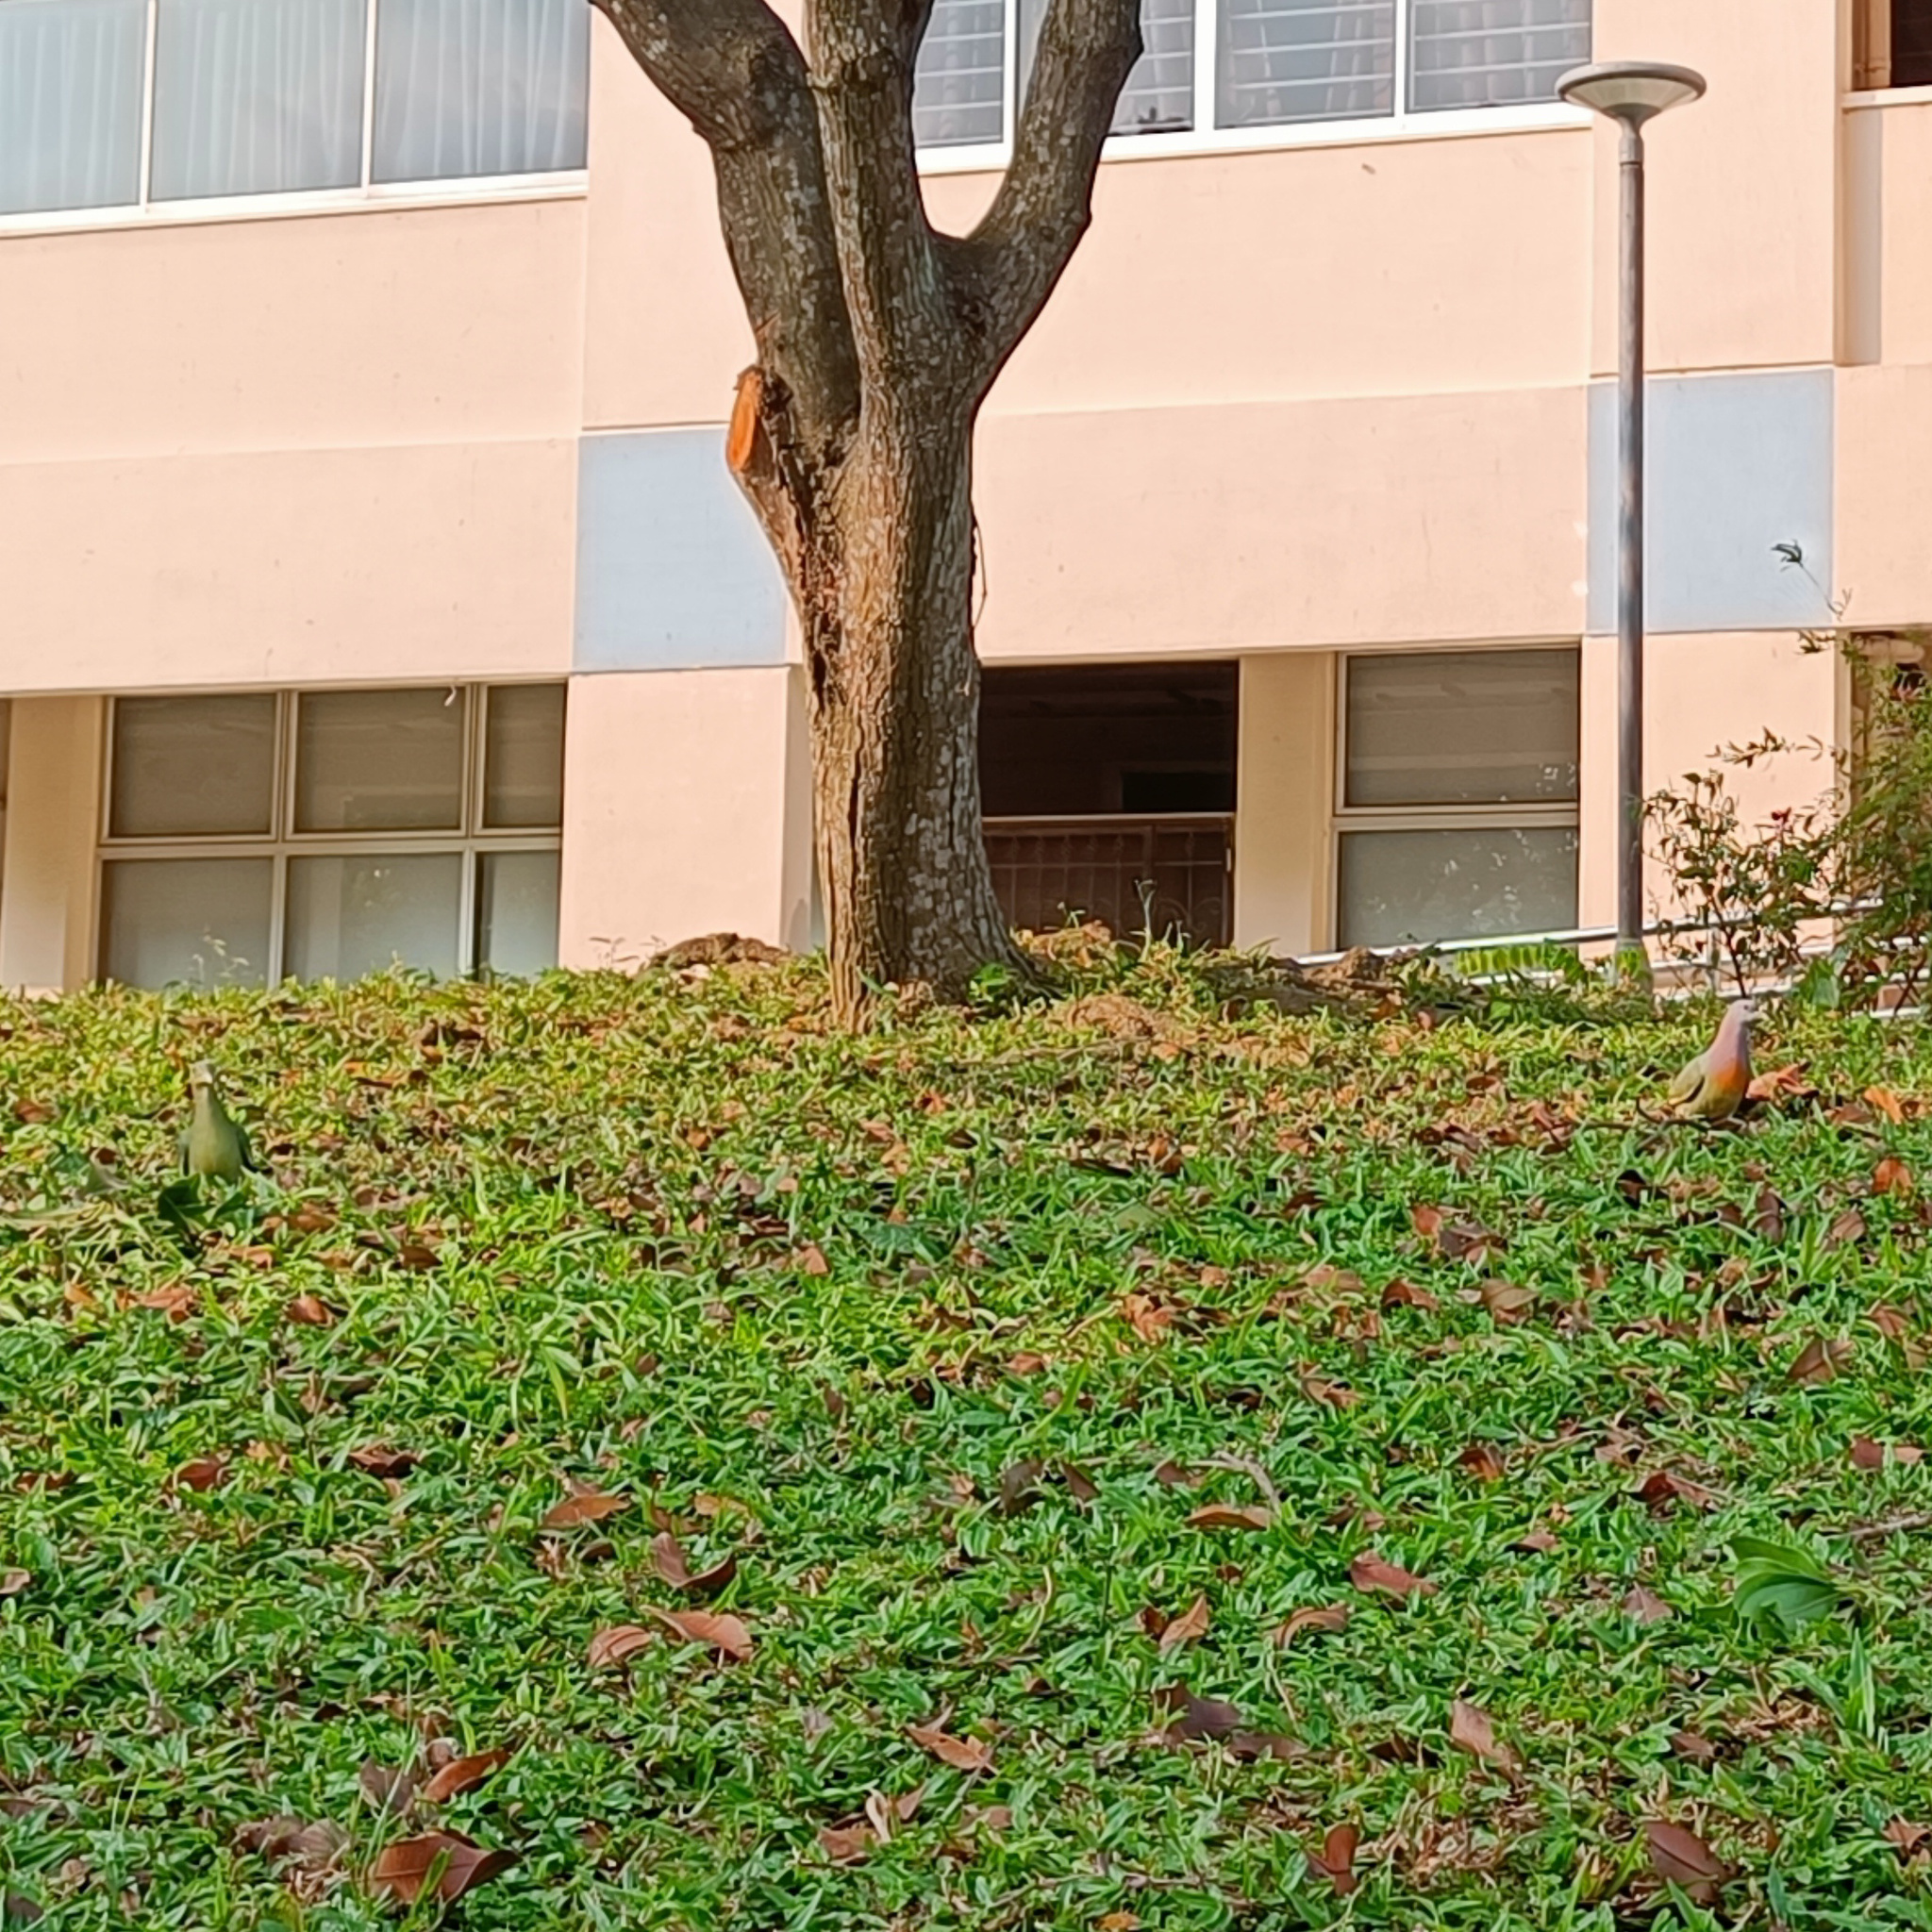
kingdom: Animalia
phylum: Chordata
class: Aves
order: Columbiformes
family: Columbidae
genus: Treron
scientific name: Treron vernans
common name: Pink-necked green pigeon
